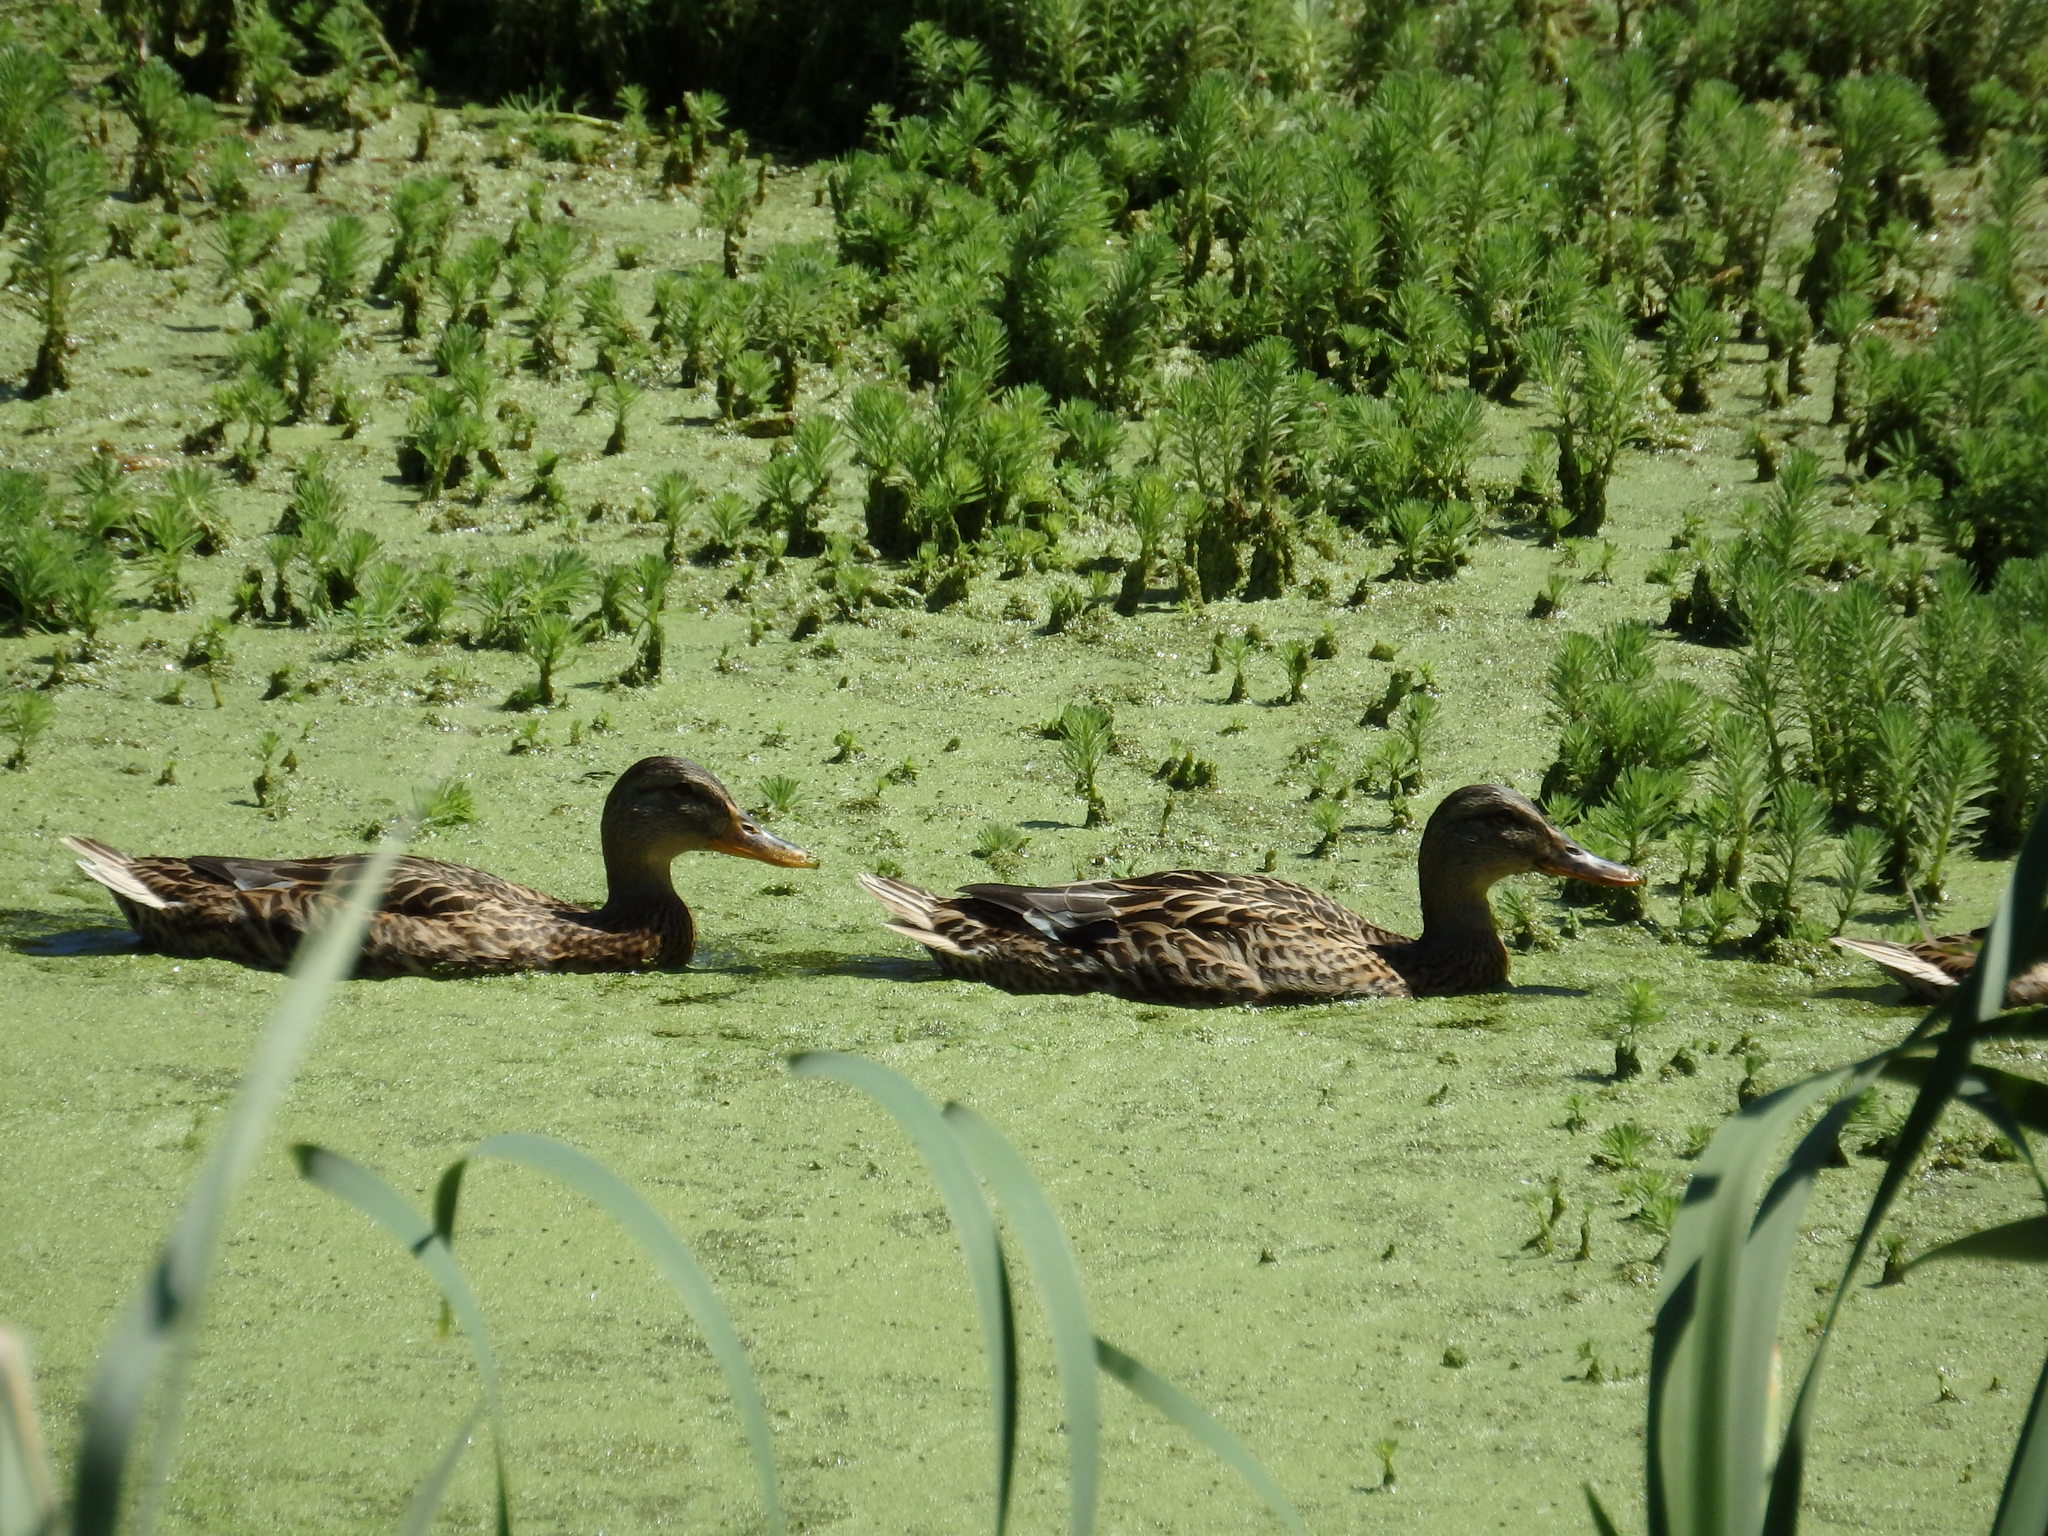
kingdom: Animalia
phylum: Chordata
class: Aves
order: Anseriformes
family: Anatidae
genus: Anas
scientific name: Anas platyrhynchos
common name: Mallard
